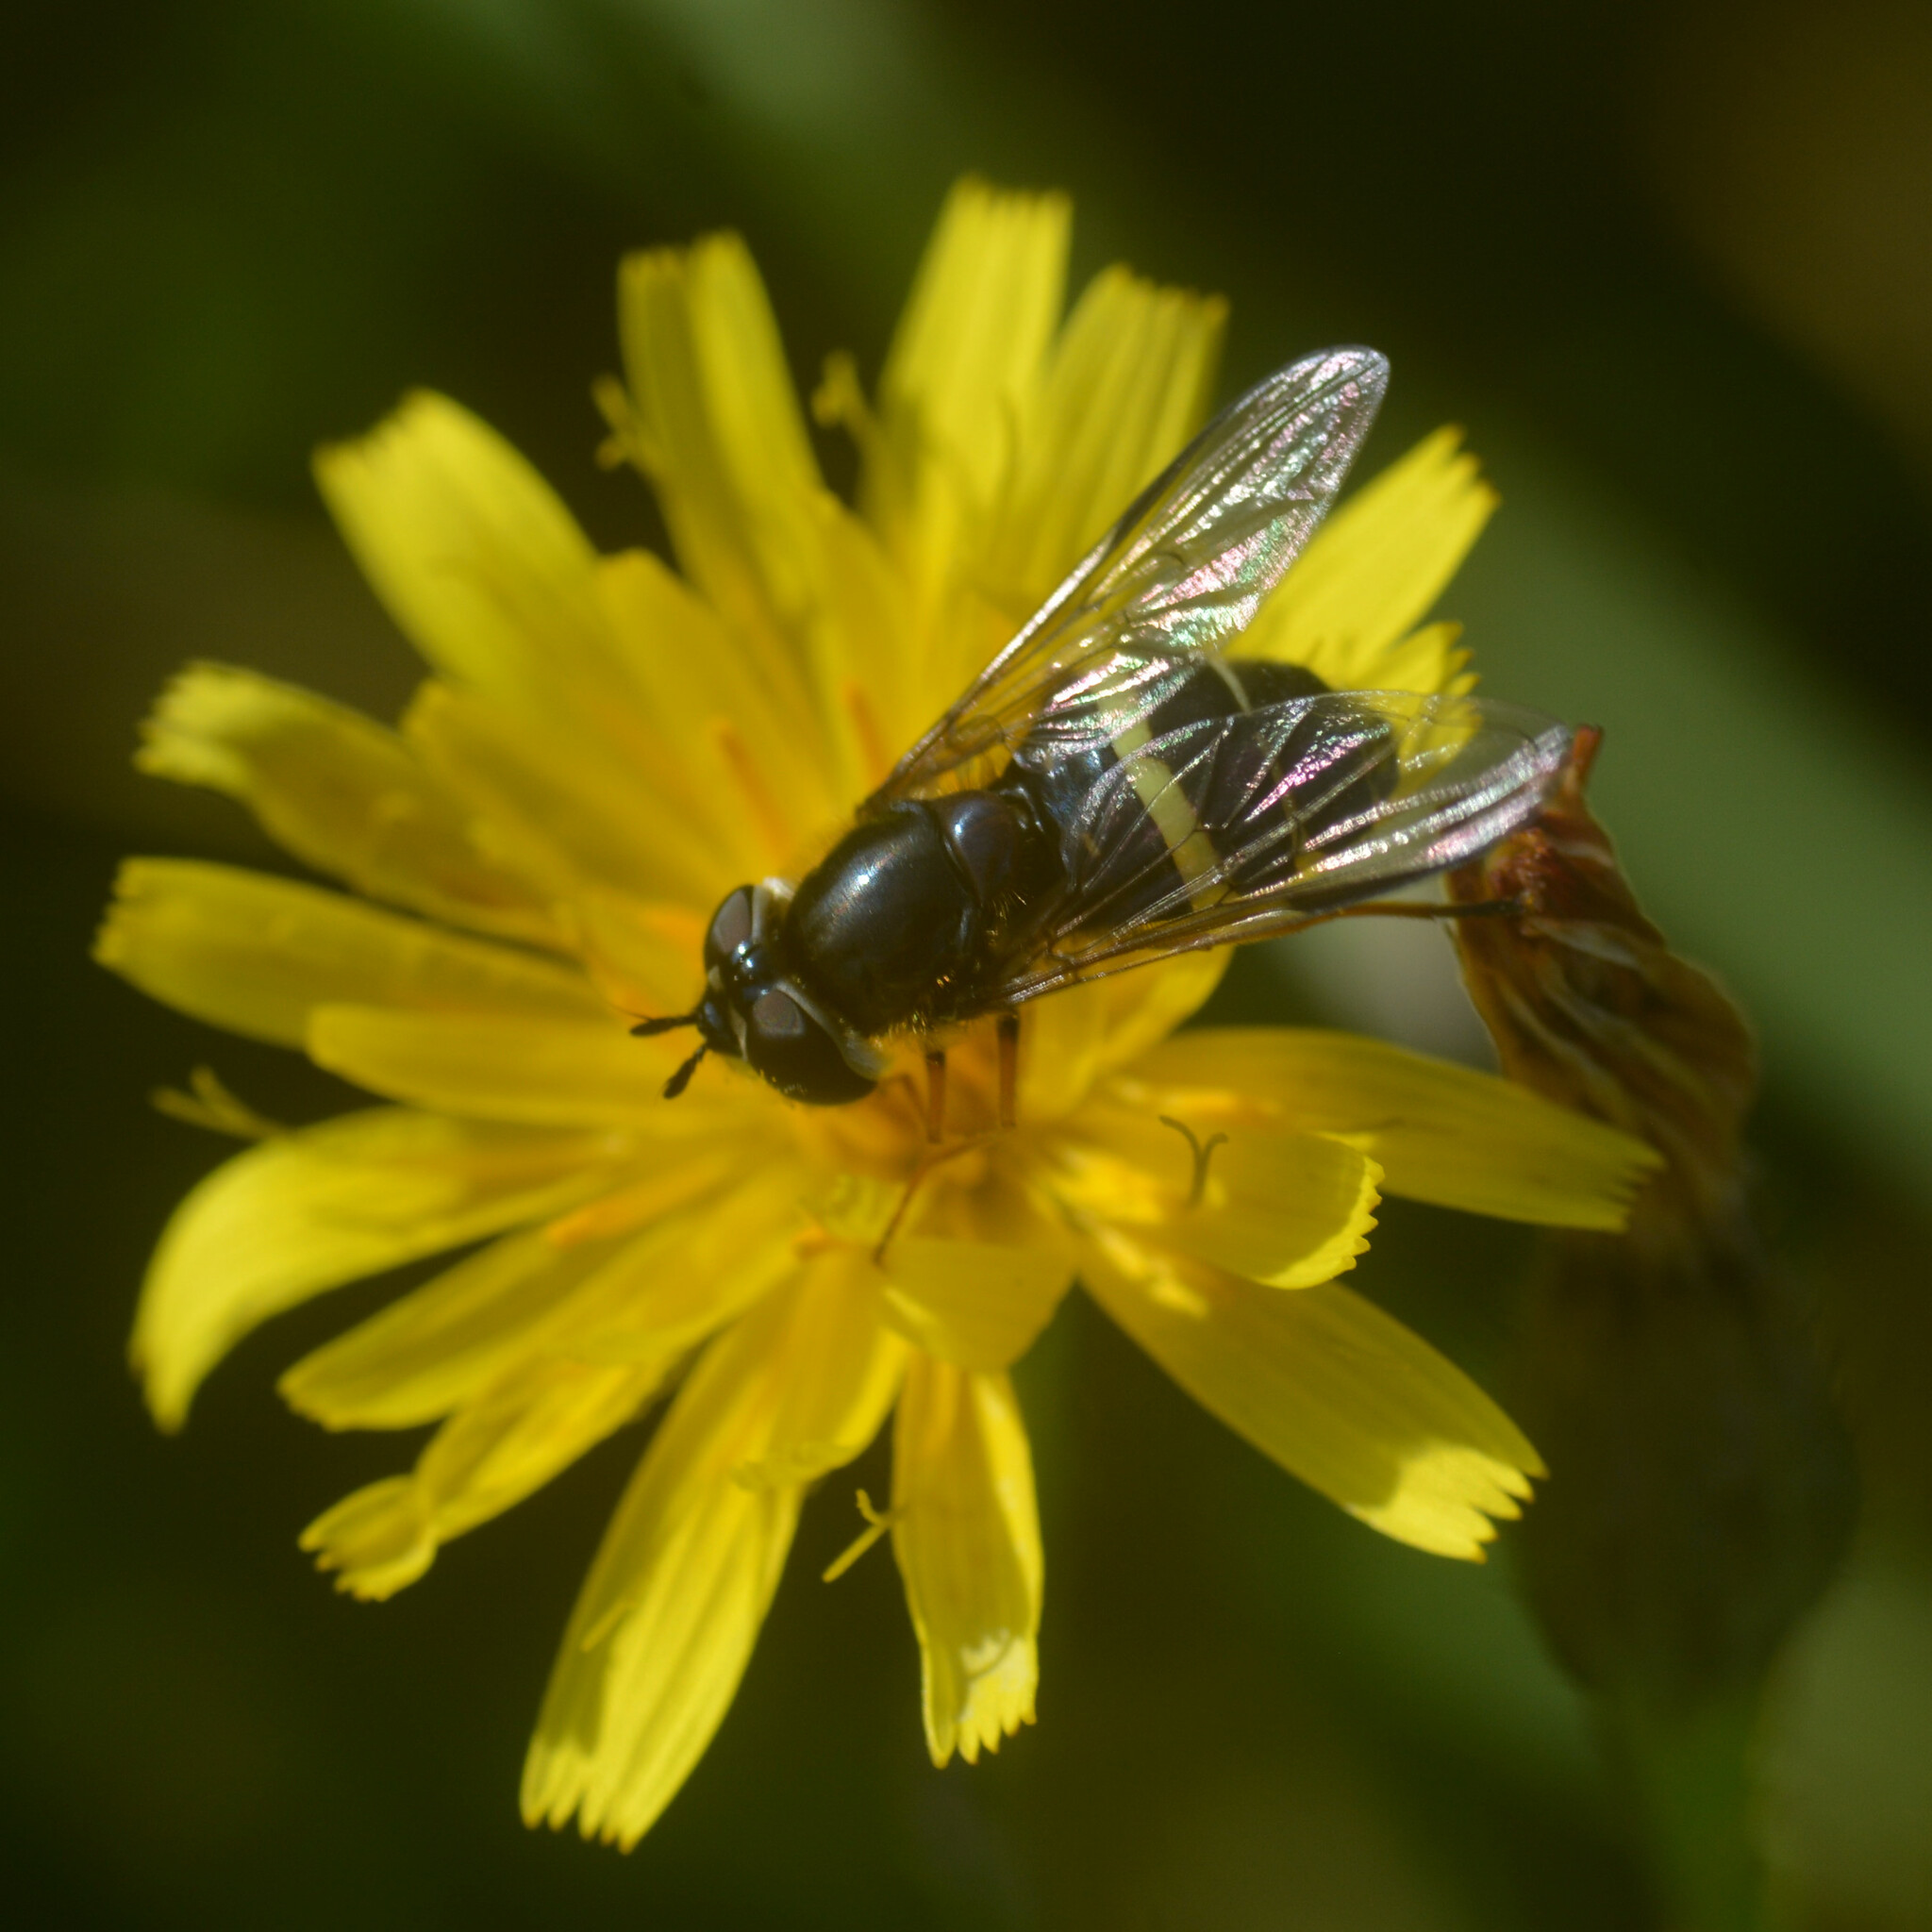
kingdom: Animalia
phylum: Arthropoda
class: Insecta
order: Diptera
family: Syrphidae
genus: Dasysyrphus
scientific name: Dasysyrphus tricinctus
